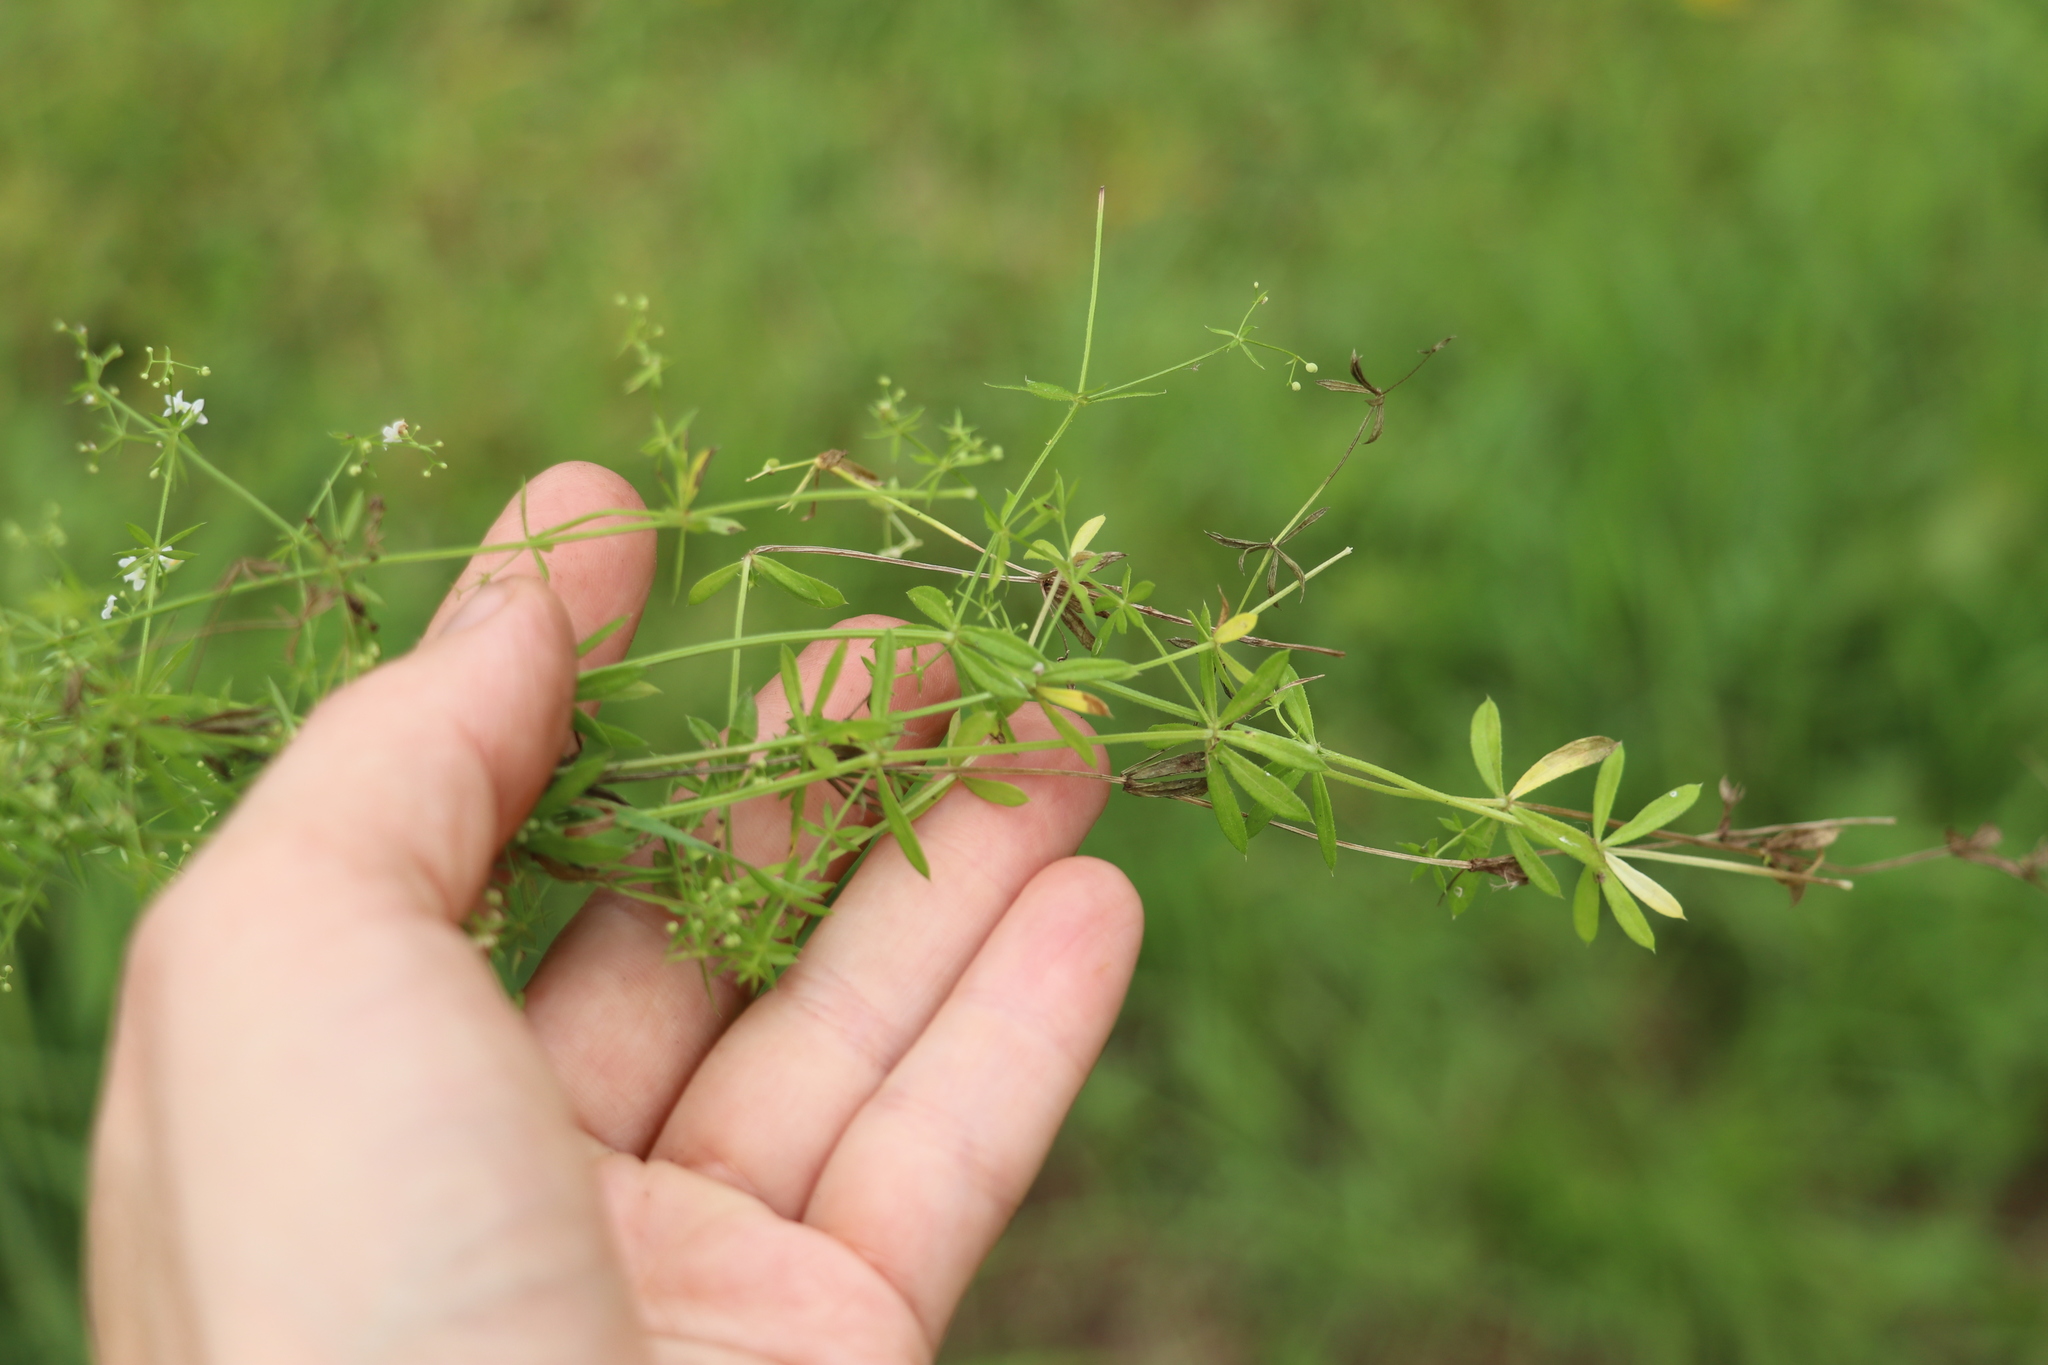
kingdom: Plantae
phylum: Tracheophyta
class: Magnoliopsida
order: Gentianales
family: Rubiaceae
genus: Galium
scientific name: Galium uliginosum
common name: Fen bedstraw
